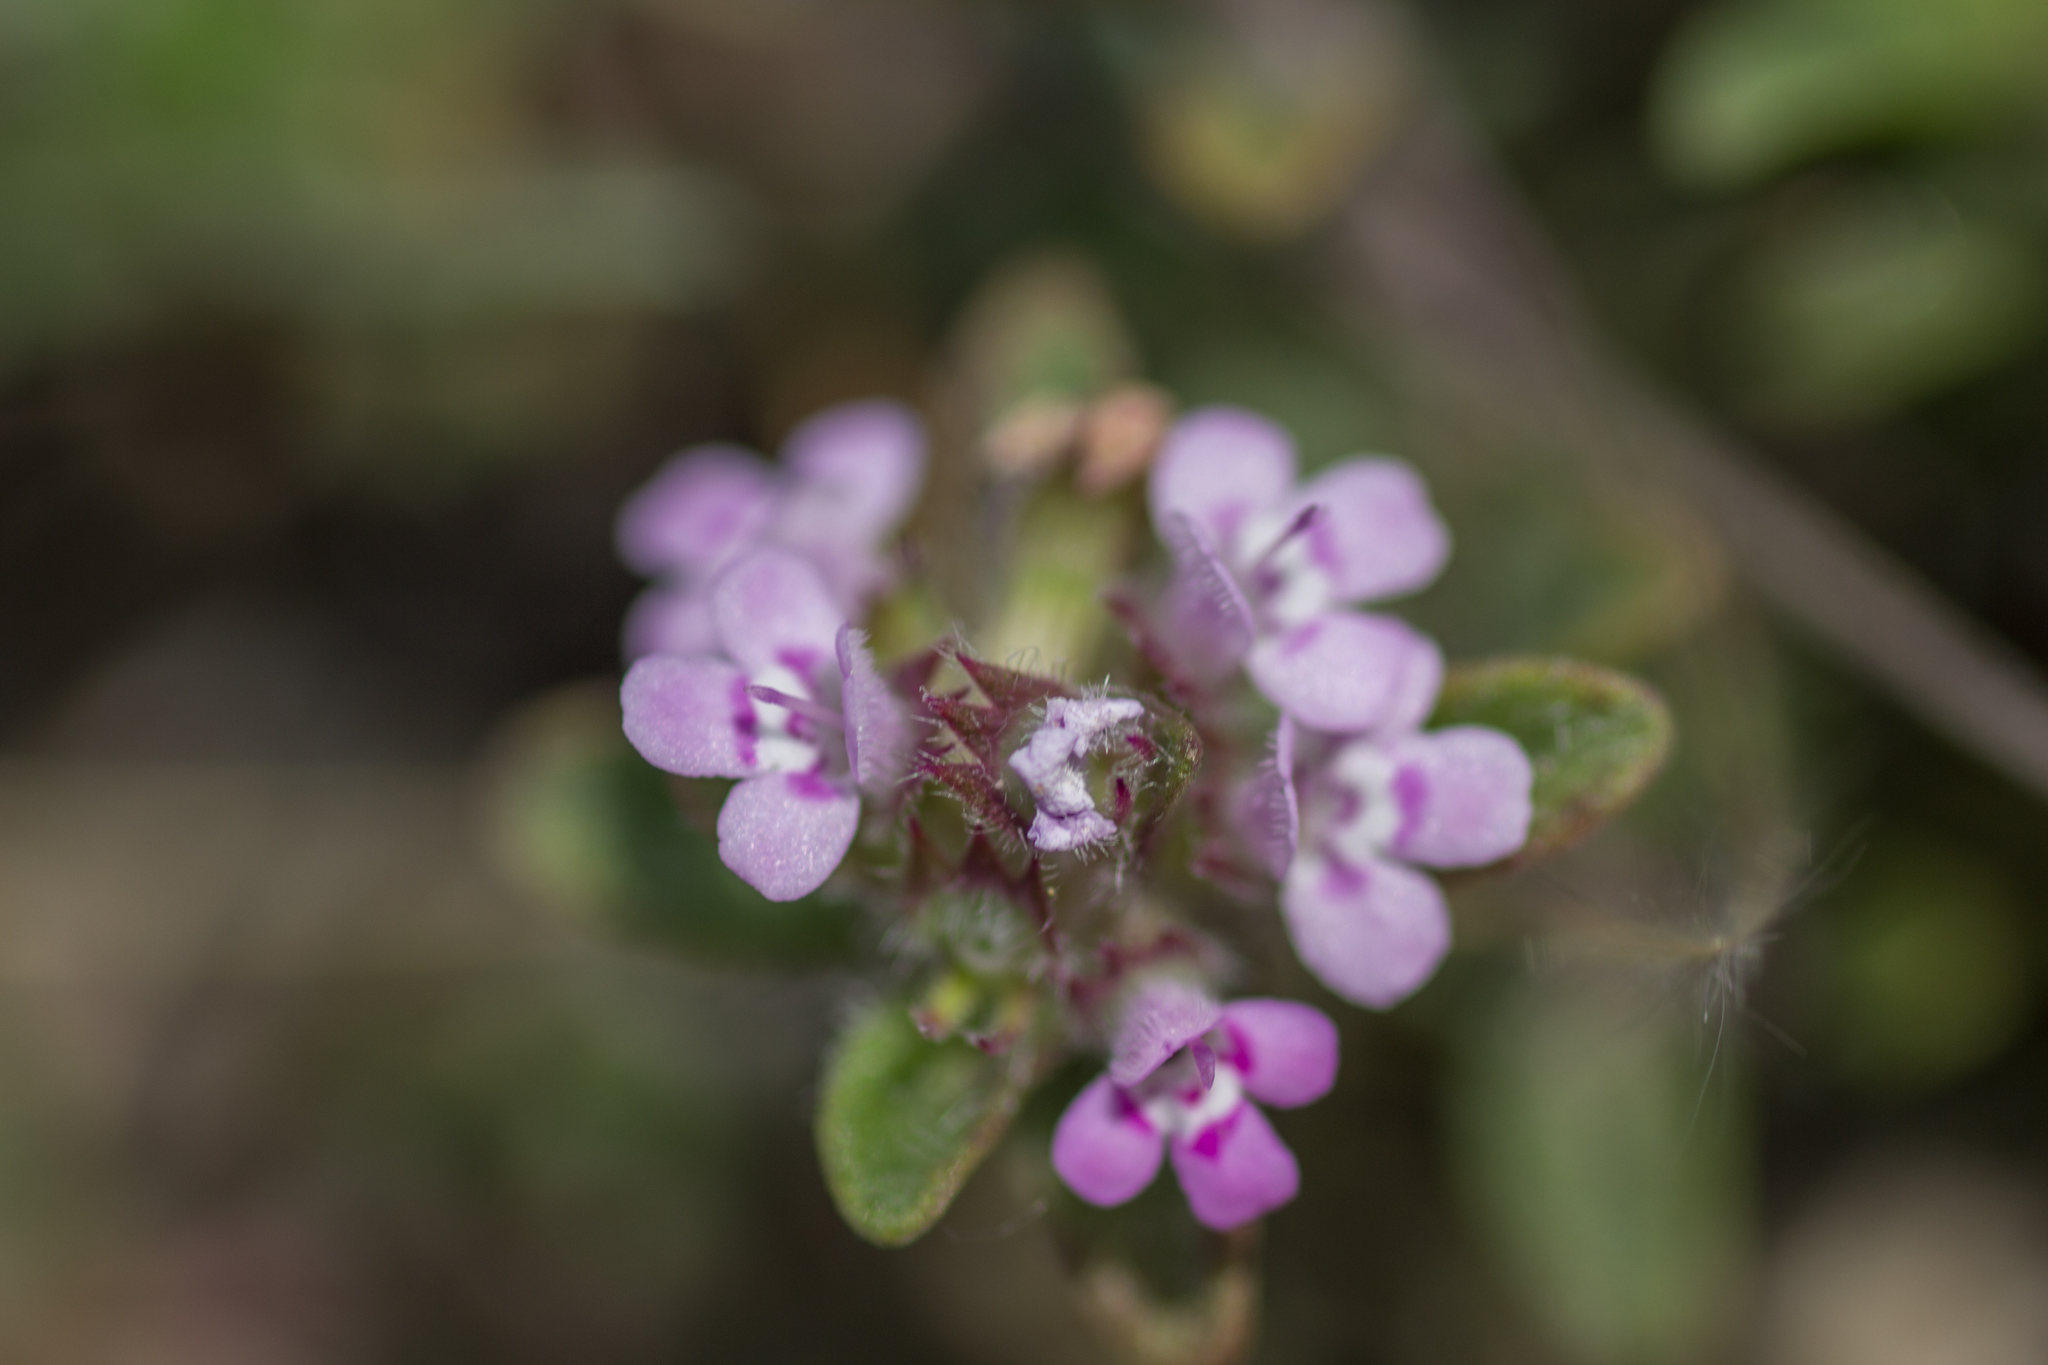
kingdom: Plantae
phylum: Tracheophyta
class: Magnoliopsida
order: Lamiales
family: Lamiaceae
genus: Thymus
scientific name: Thymus praecox
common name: Wild thyme
